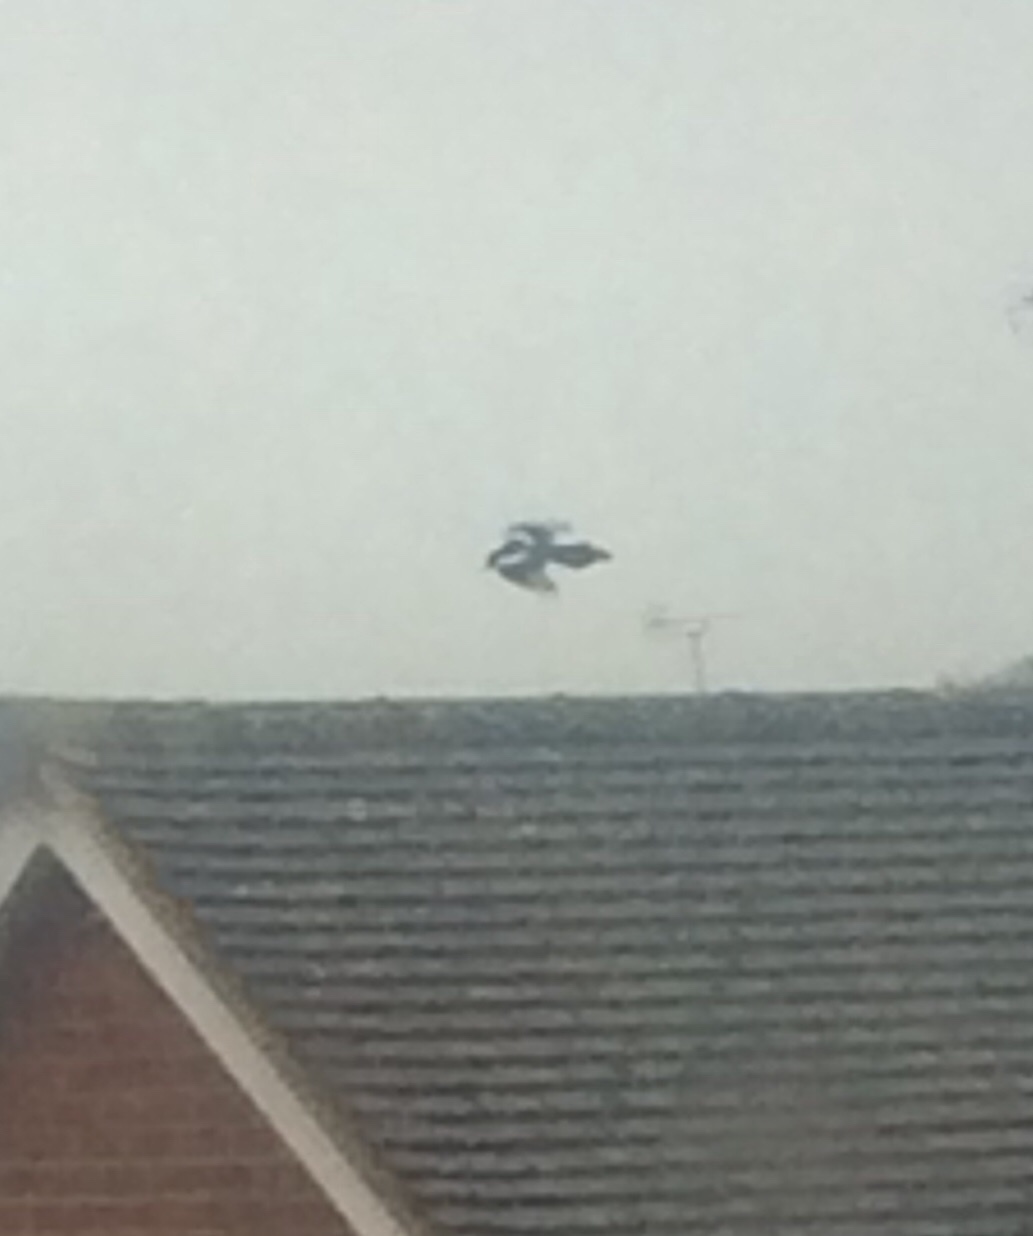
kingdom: Animalia
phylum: Chordata
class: Aves
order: Passeriformes
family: Corvidae
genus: Pica
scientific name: Pica pica
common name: Eurasian magpie
